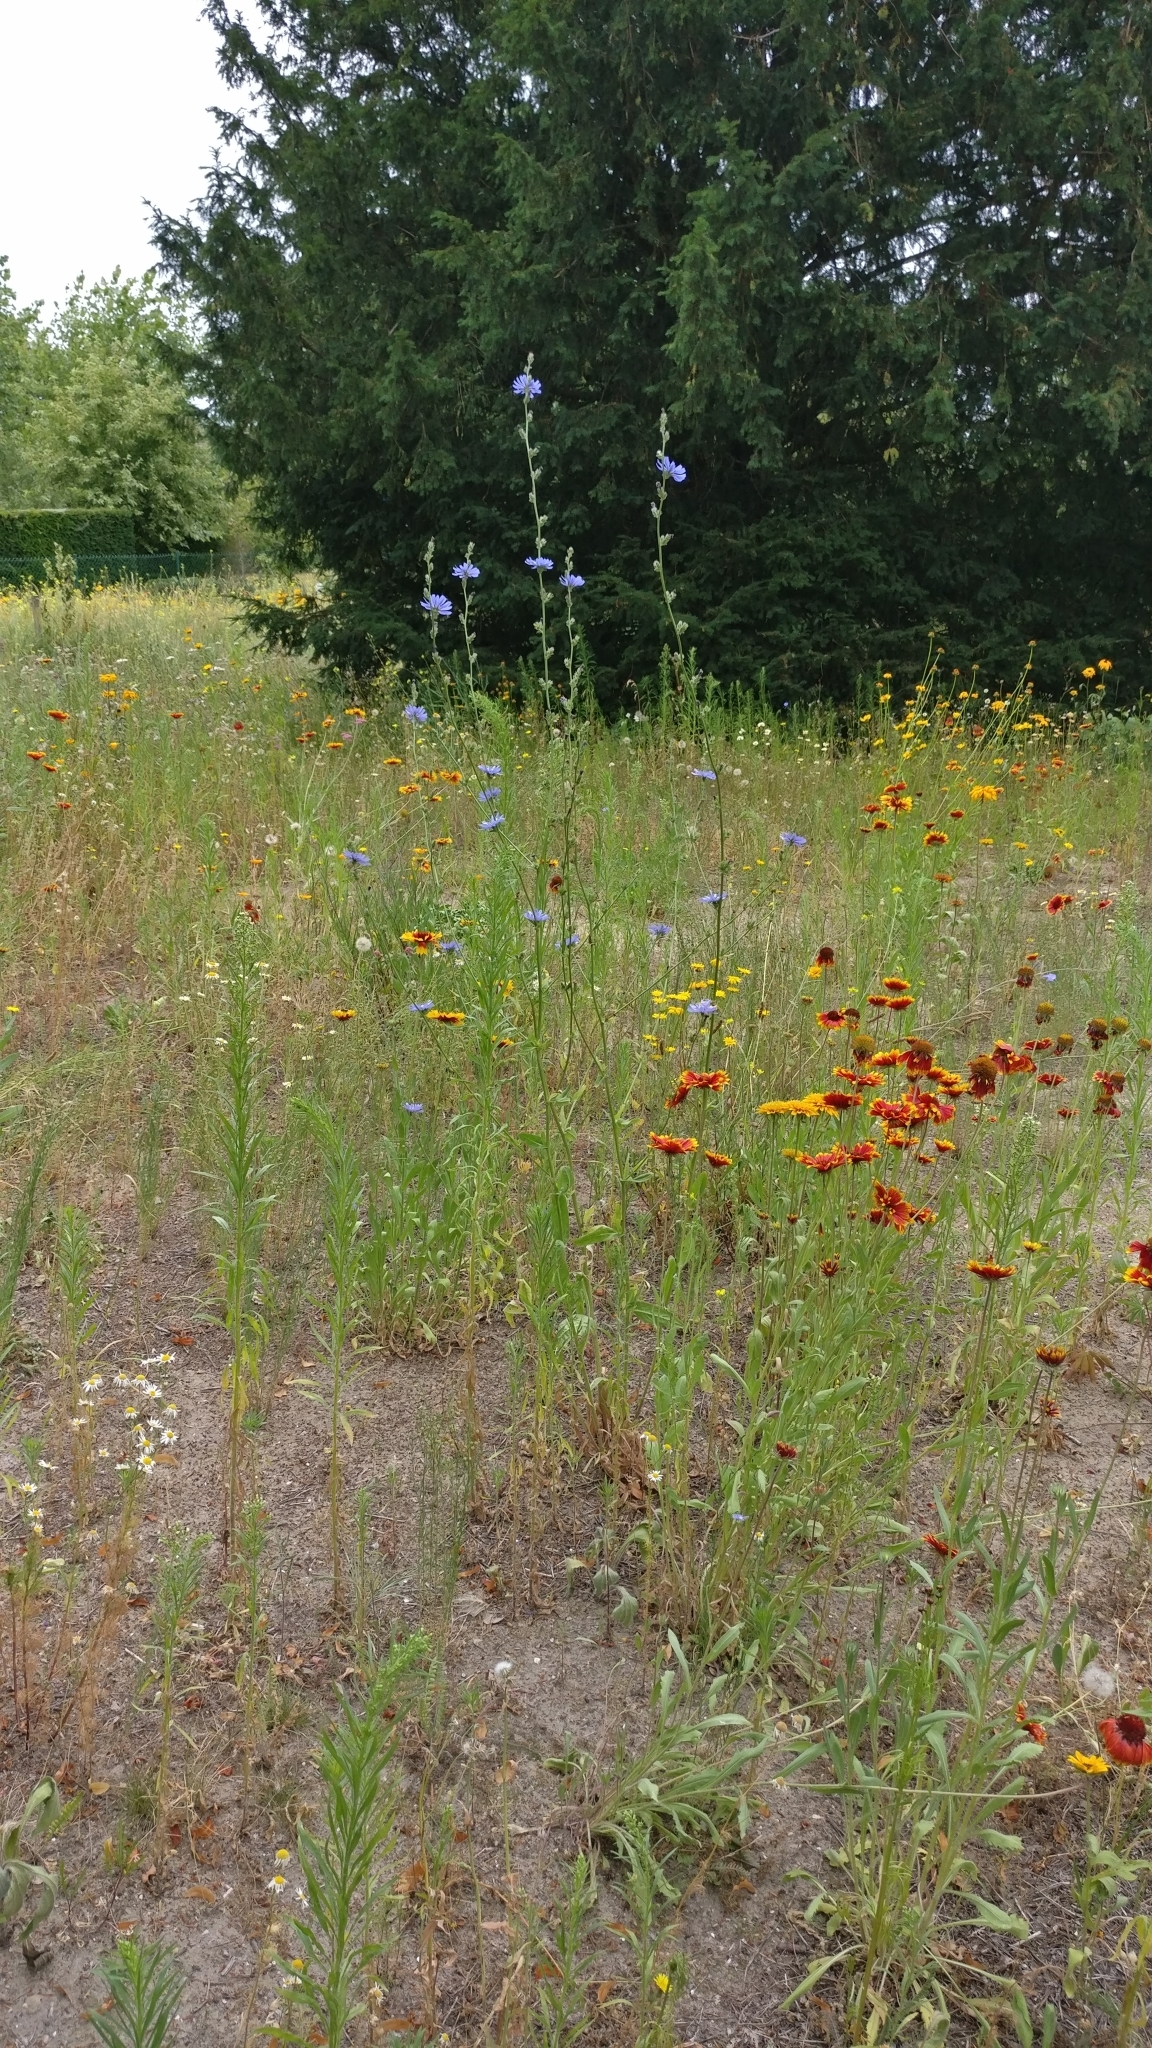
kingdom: Plantae
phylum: Tracheophyta
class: Magnoliopsida
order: Asterales
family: Asteraceae
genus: Cichorium
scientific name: Cichorium intybus
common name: Chicory
